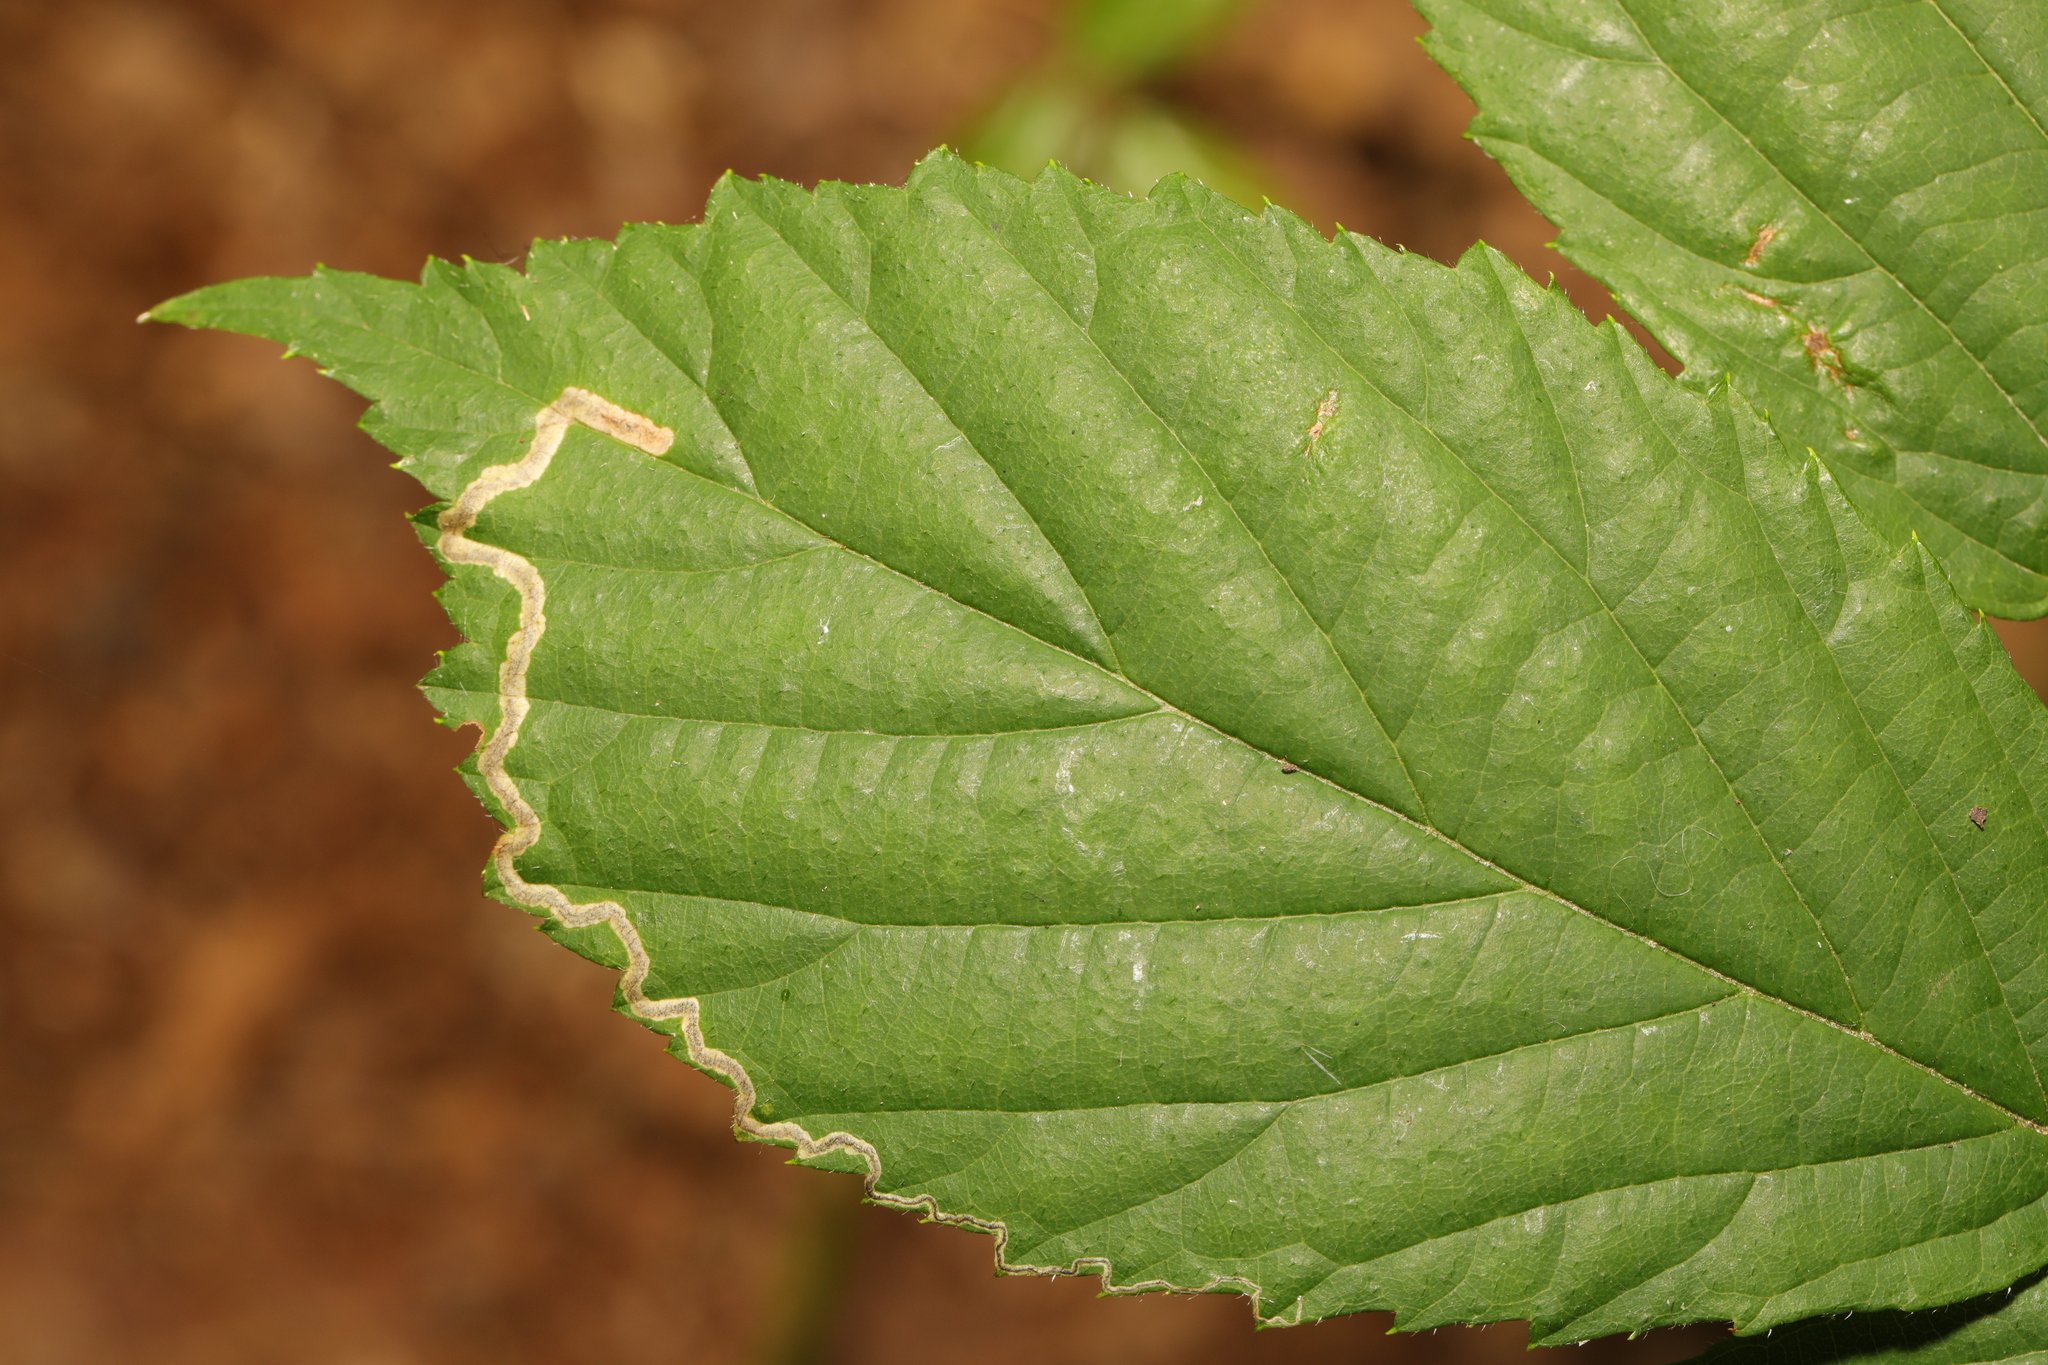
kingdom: Animalia
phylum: Arthropoda
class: Insecta
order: Lepidoptera
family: Nepticulidae
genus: Stigmella
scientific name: Stigmella aurella
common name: Golden pigmy
